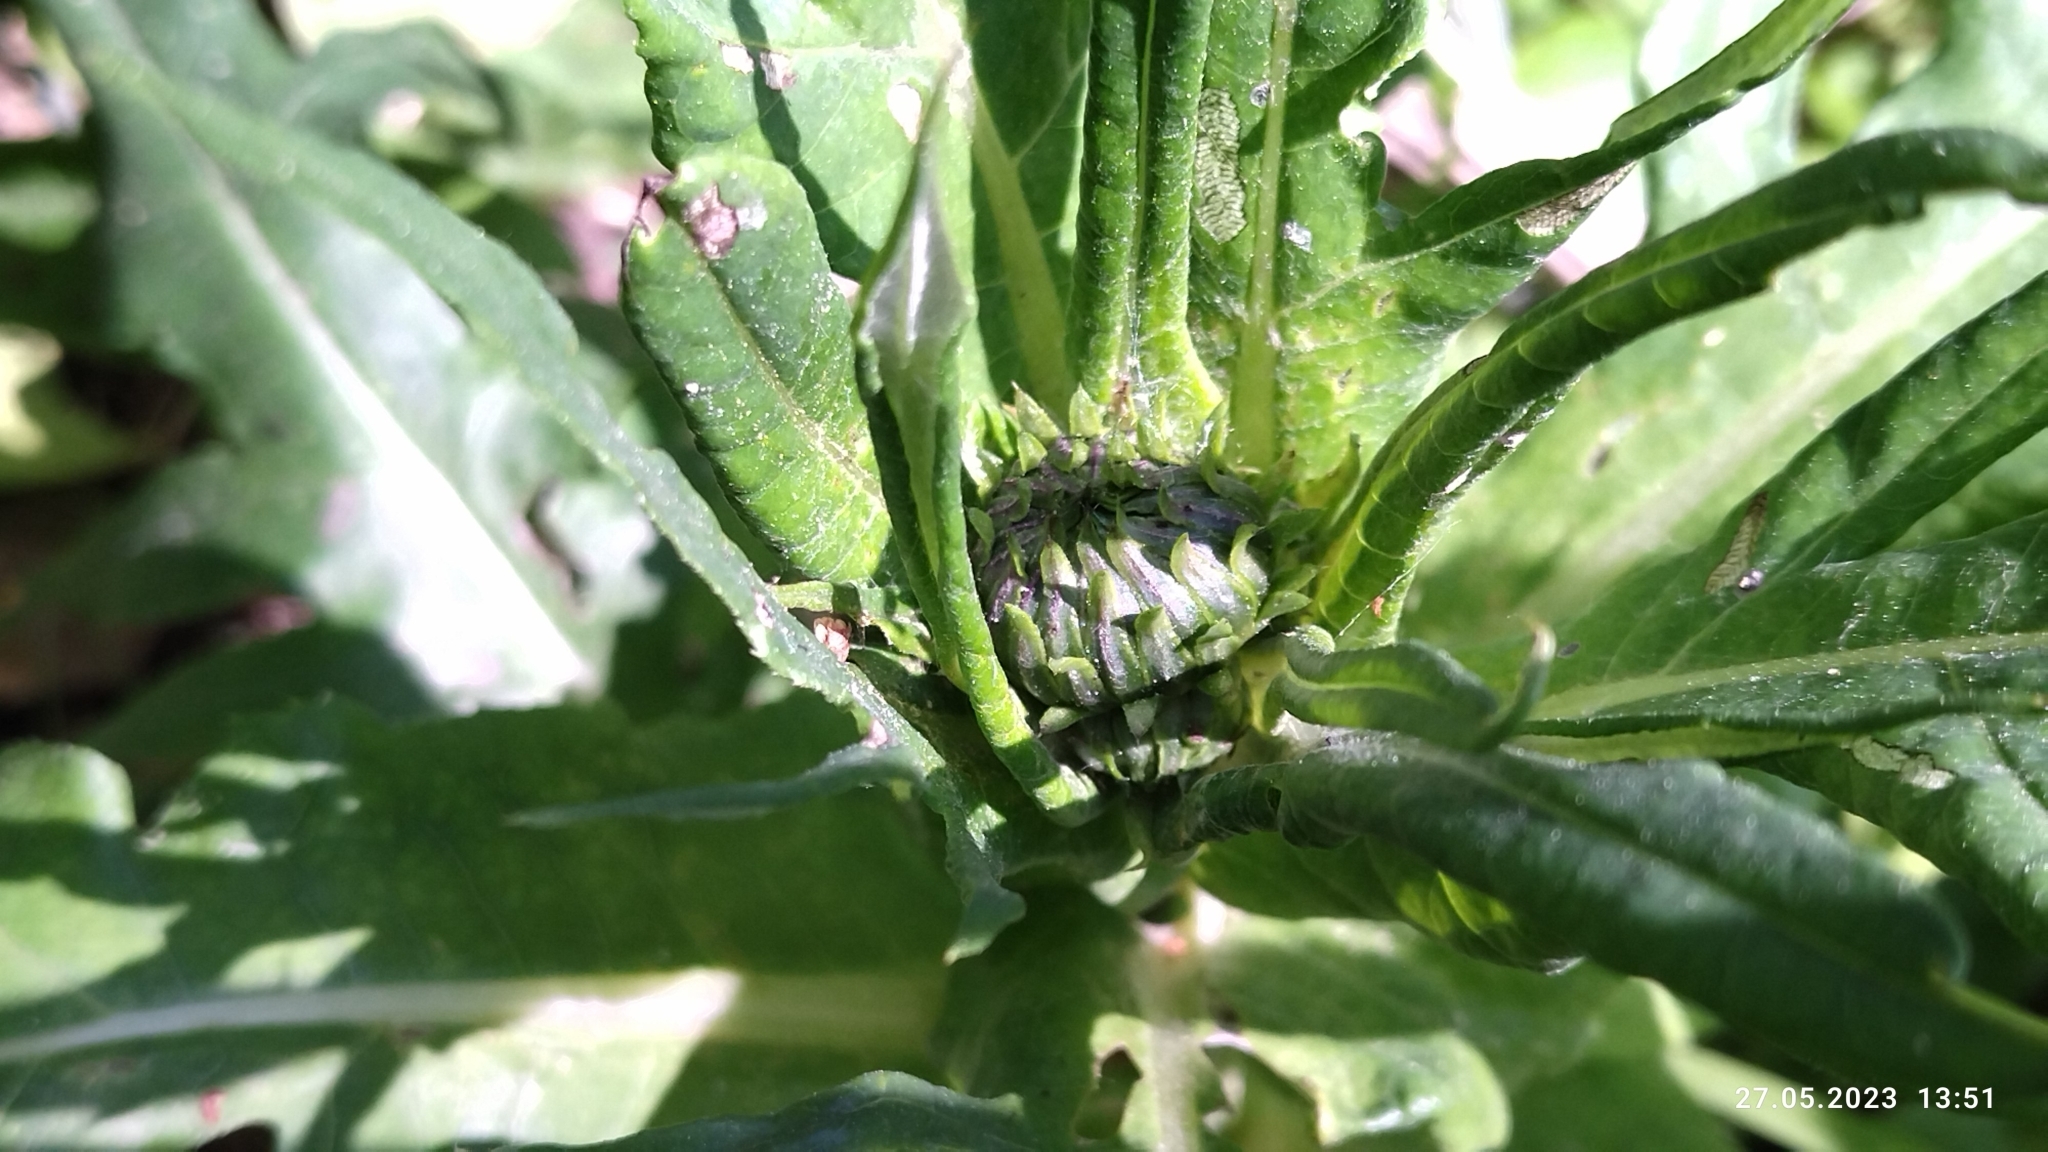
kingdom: Plantae
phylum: Tracheophyta
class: Magnoliopsida
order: Asterales
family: Asteraceae
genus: Cirsium
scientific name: Cirsium heterophyllum
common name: Melancholy thistle
